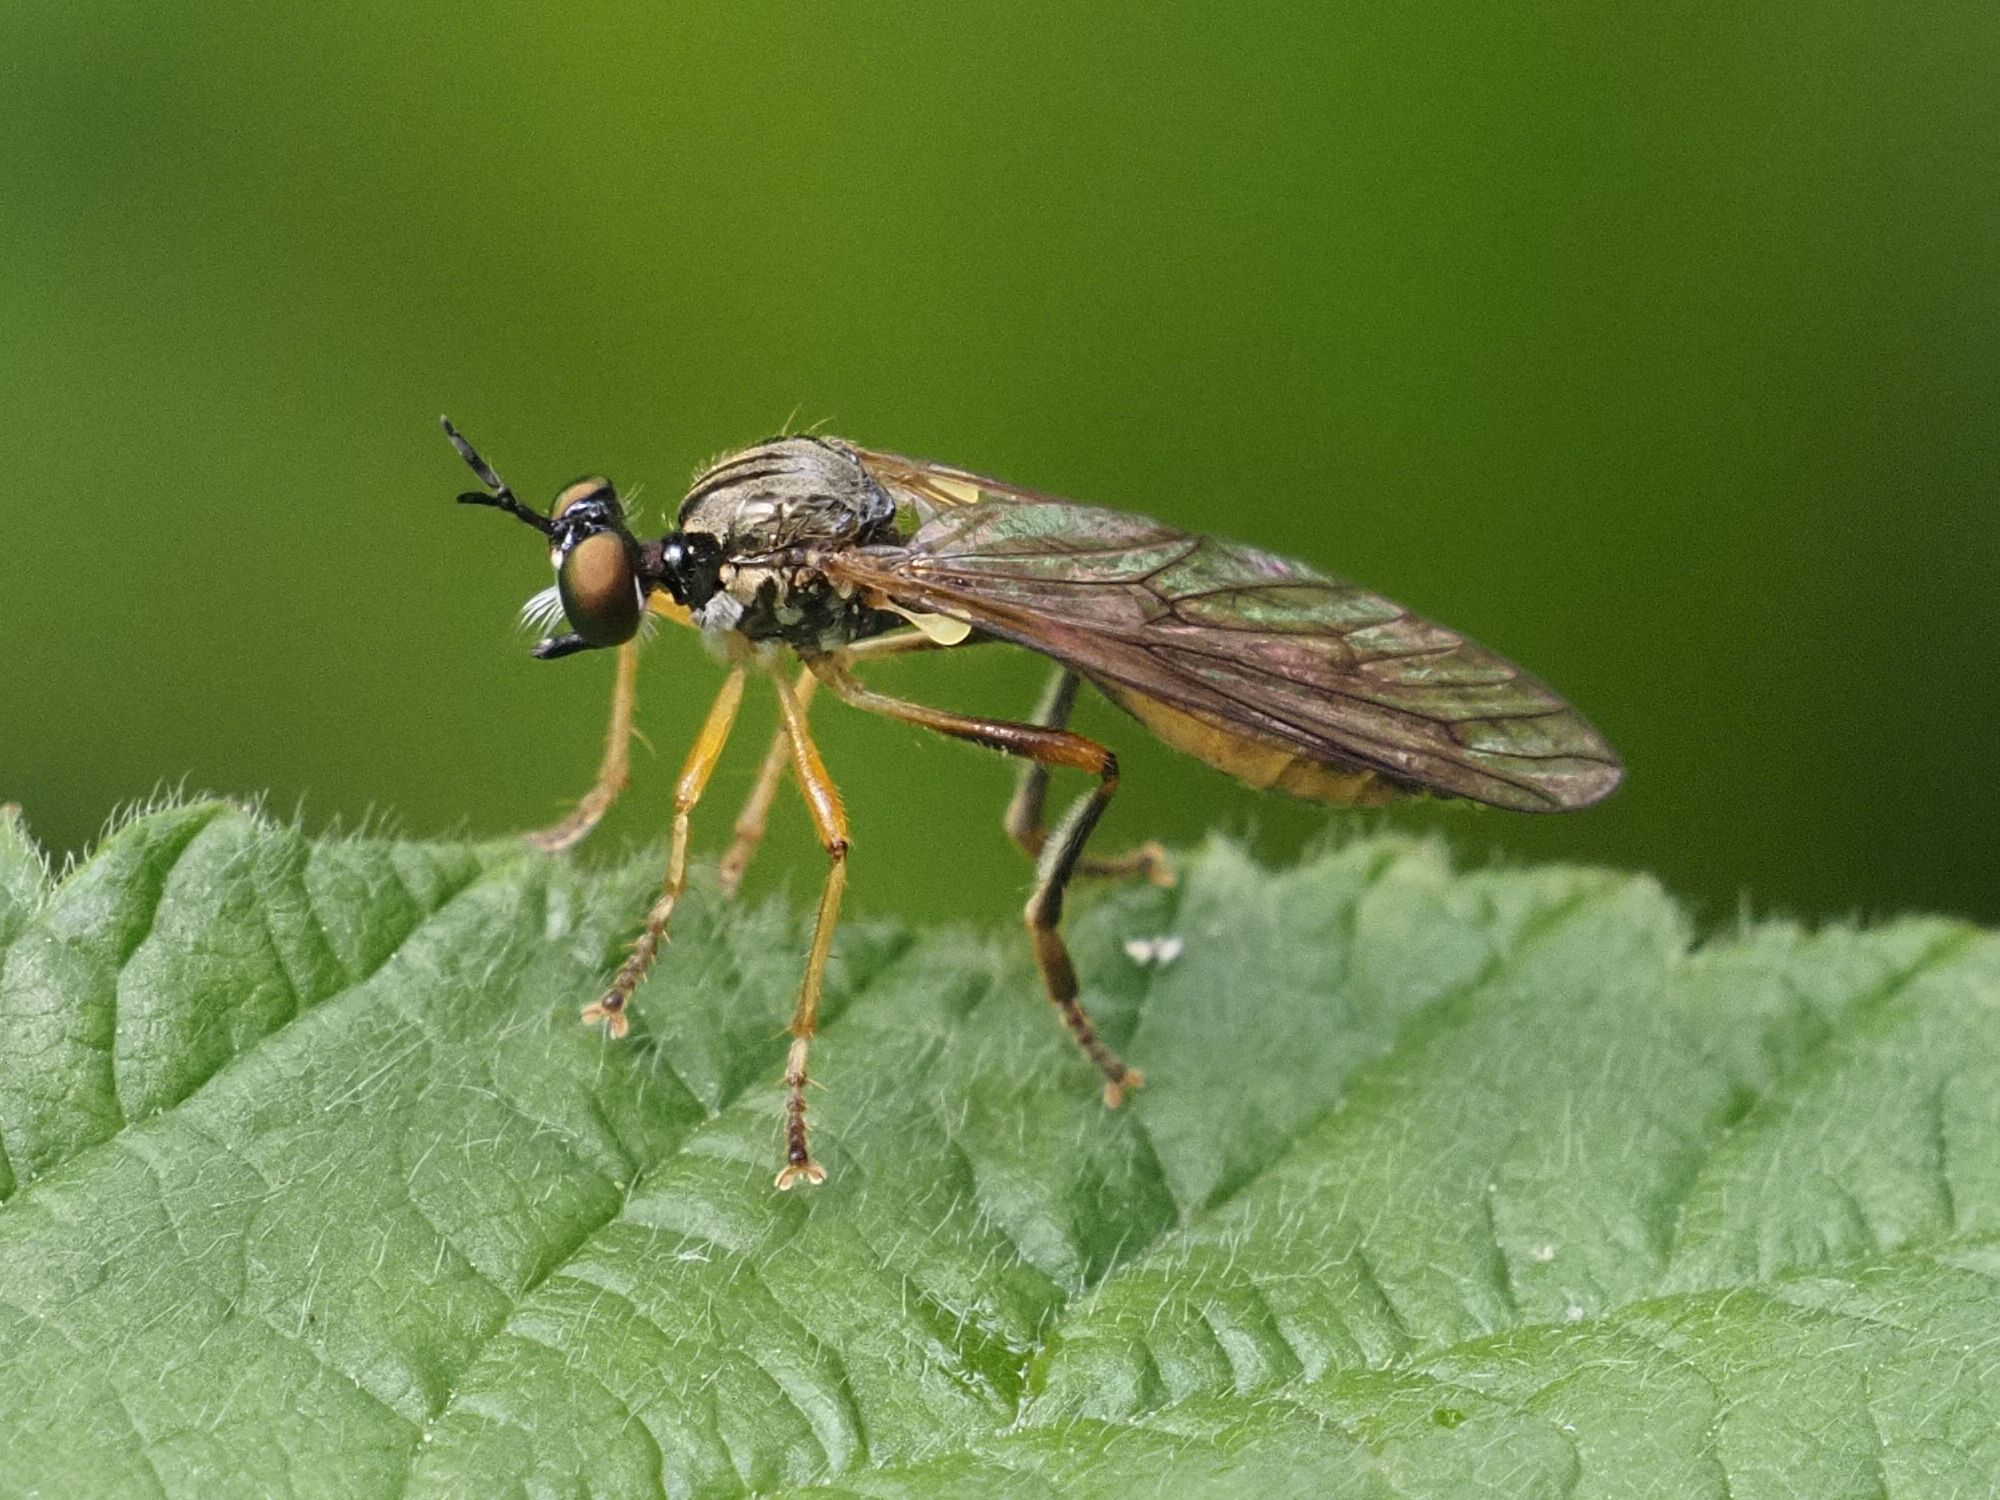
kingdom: Animalia
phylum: Arthropoda
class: Insecta
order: Diptera
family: Asilidae
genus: Dioctria
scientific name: Dioctria linearis
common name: Small yellow-legged robberfly
